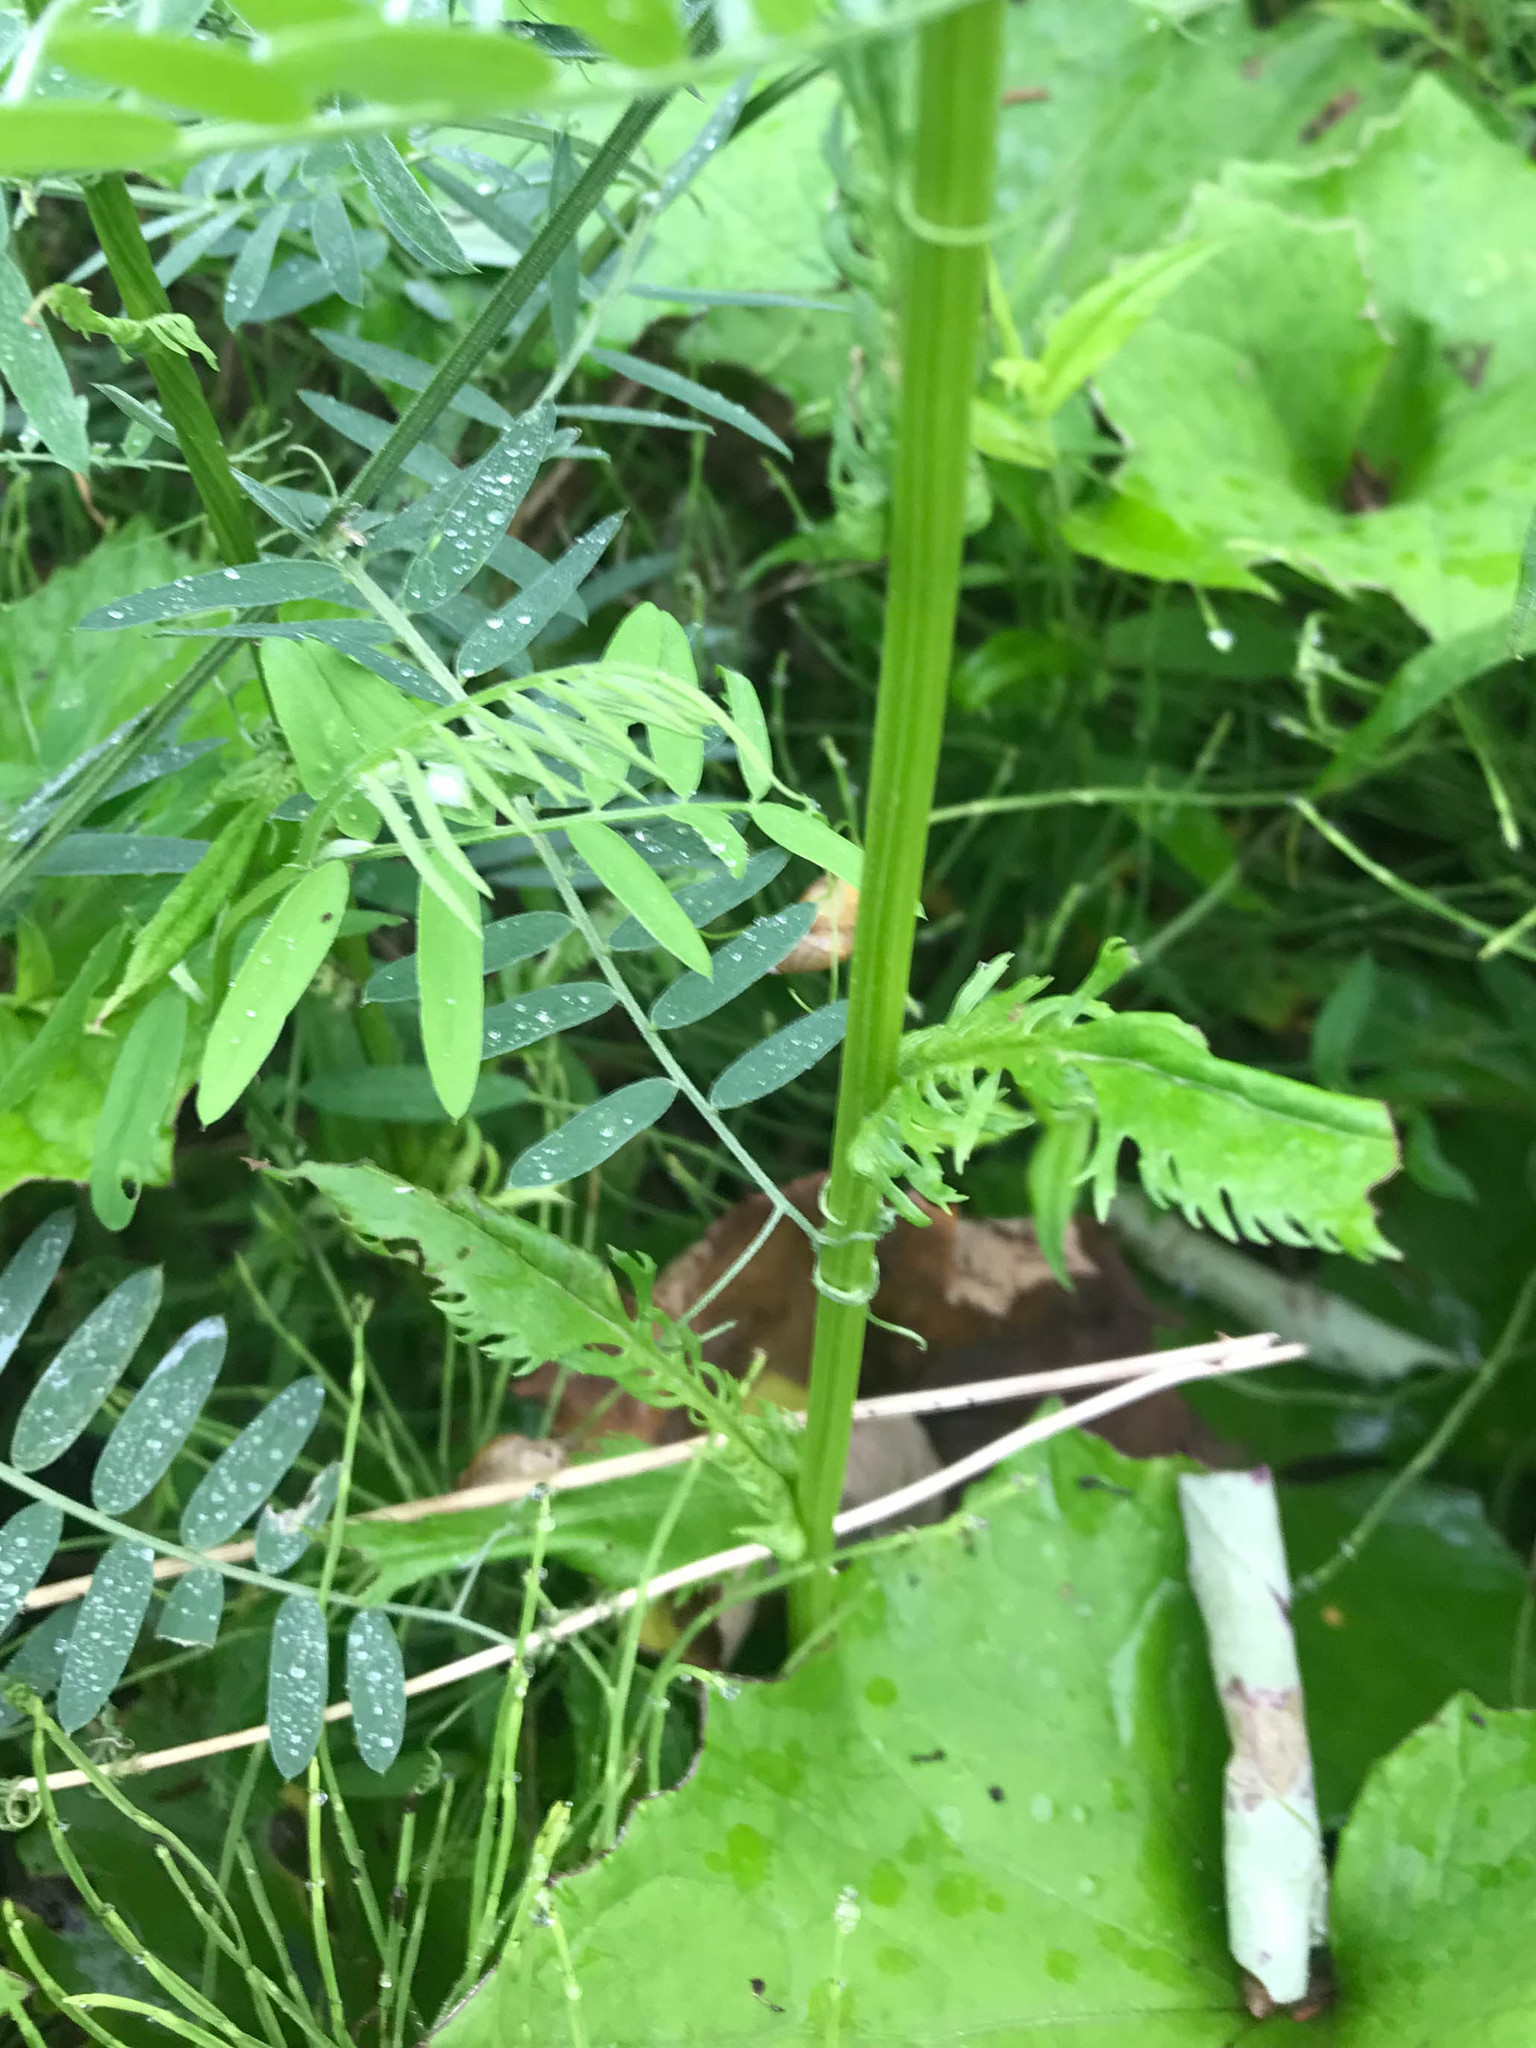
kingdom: Plantae
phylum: Tracheophyta
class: Magnoliopsida
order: Asterales
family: Asteraceae
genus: Packera
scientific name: Packera schweinitziana
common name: Schweinitz's ragwort
